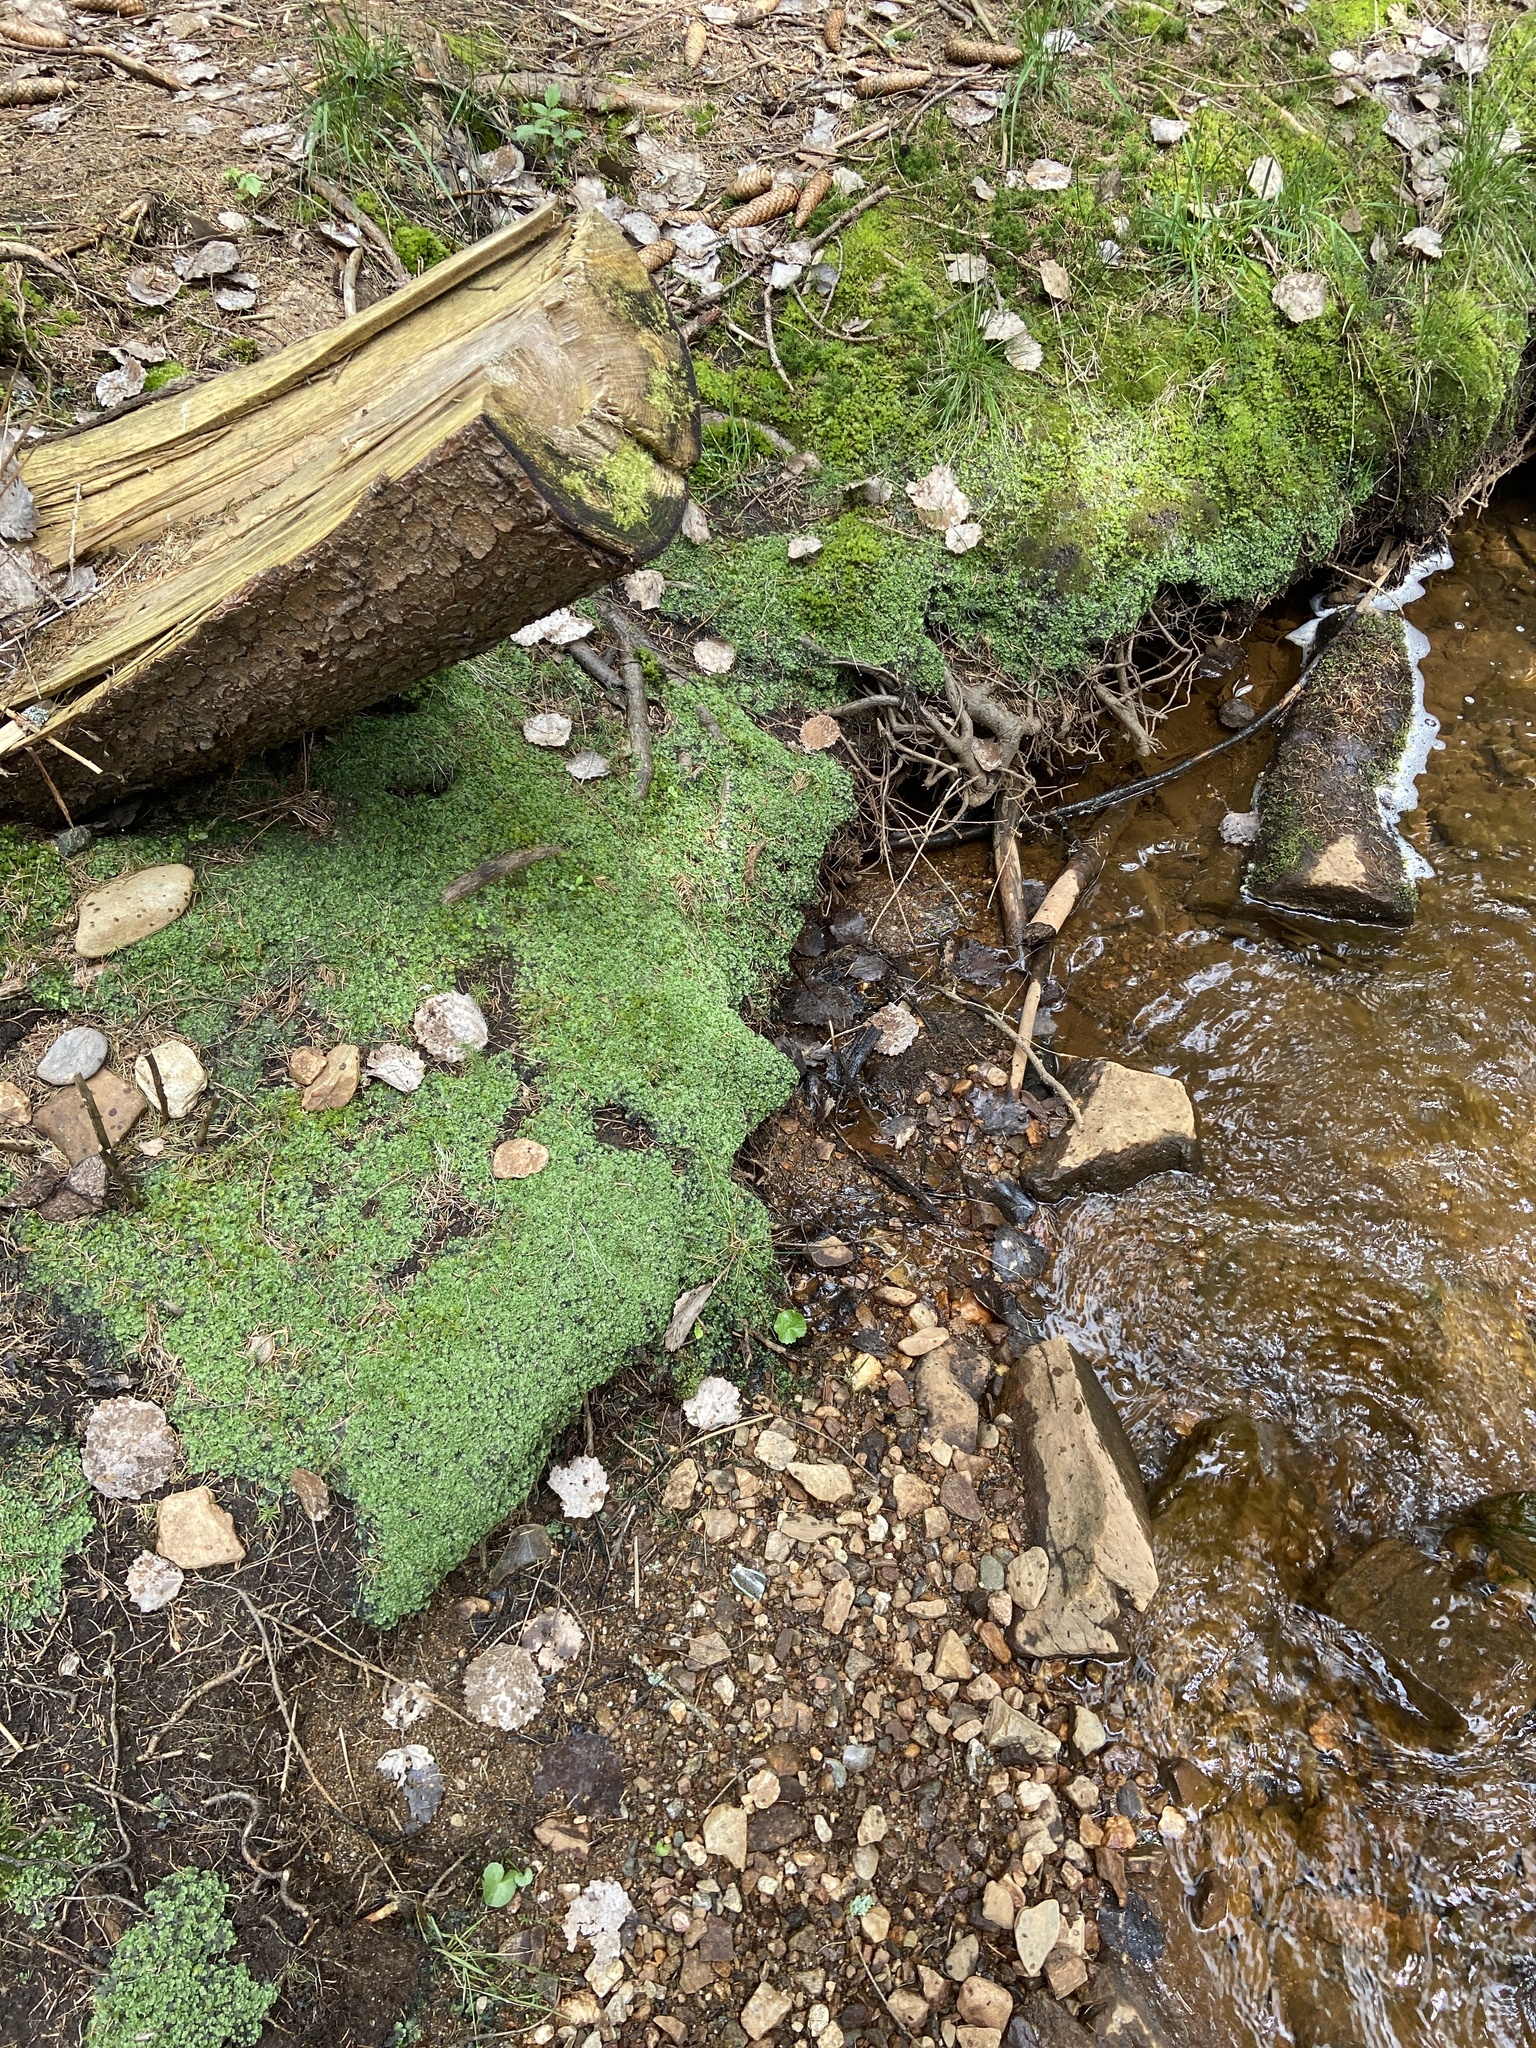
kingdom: Plantae
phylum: Marchantiophyta
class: Jungermanniopsida
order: Pelliales
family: Pelliaceae
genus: Pellia
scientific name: Pellia epiphylla
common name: Common pellia
